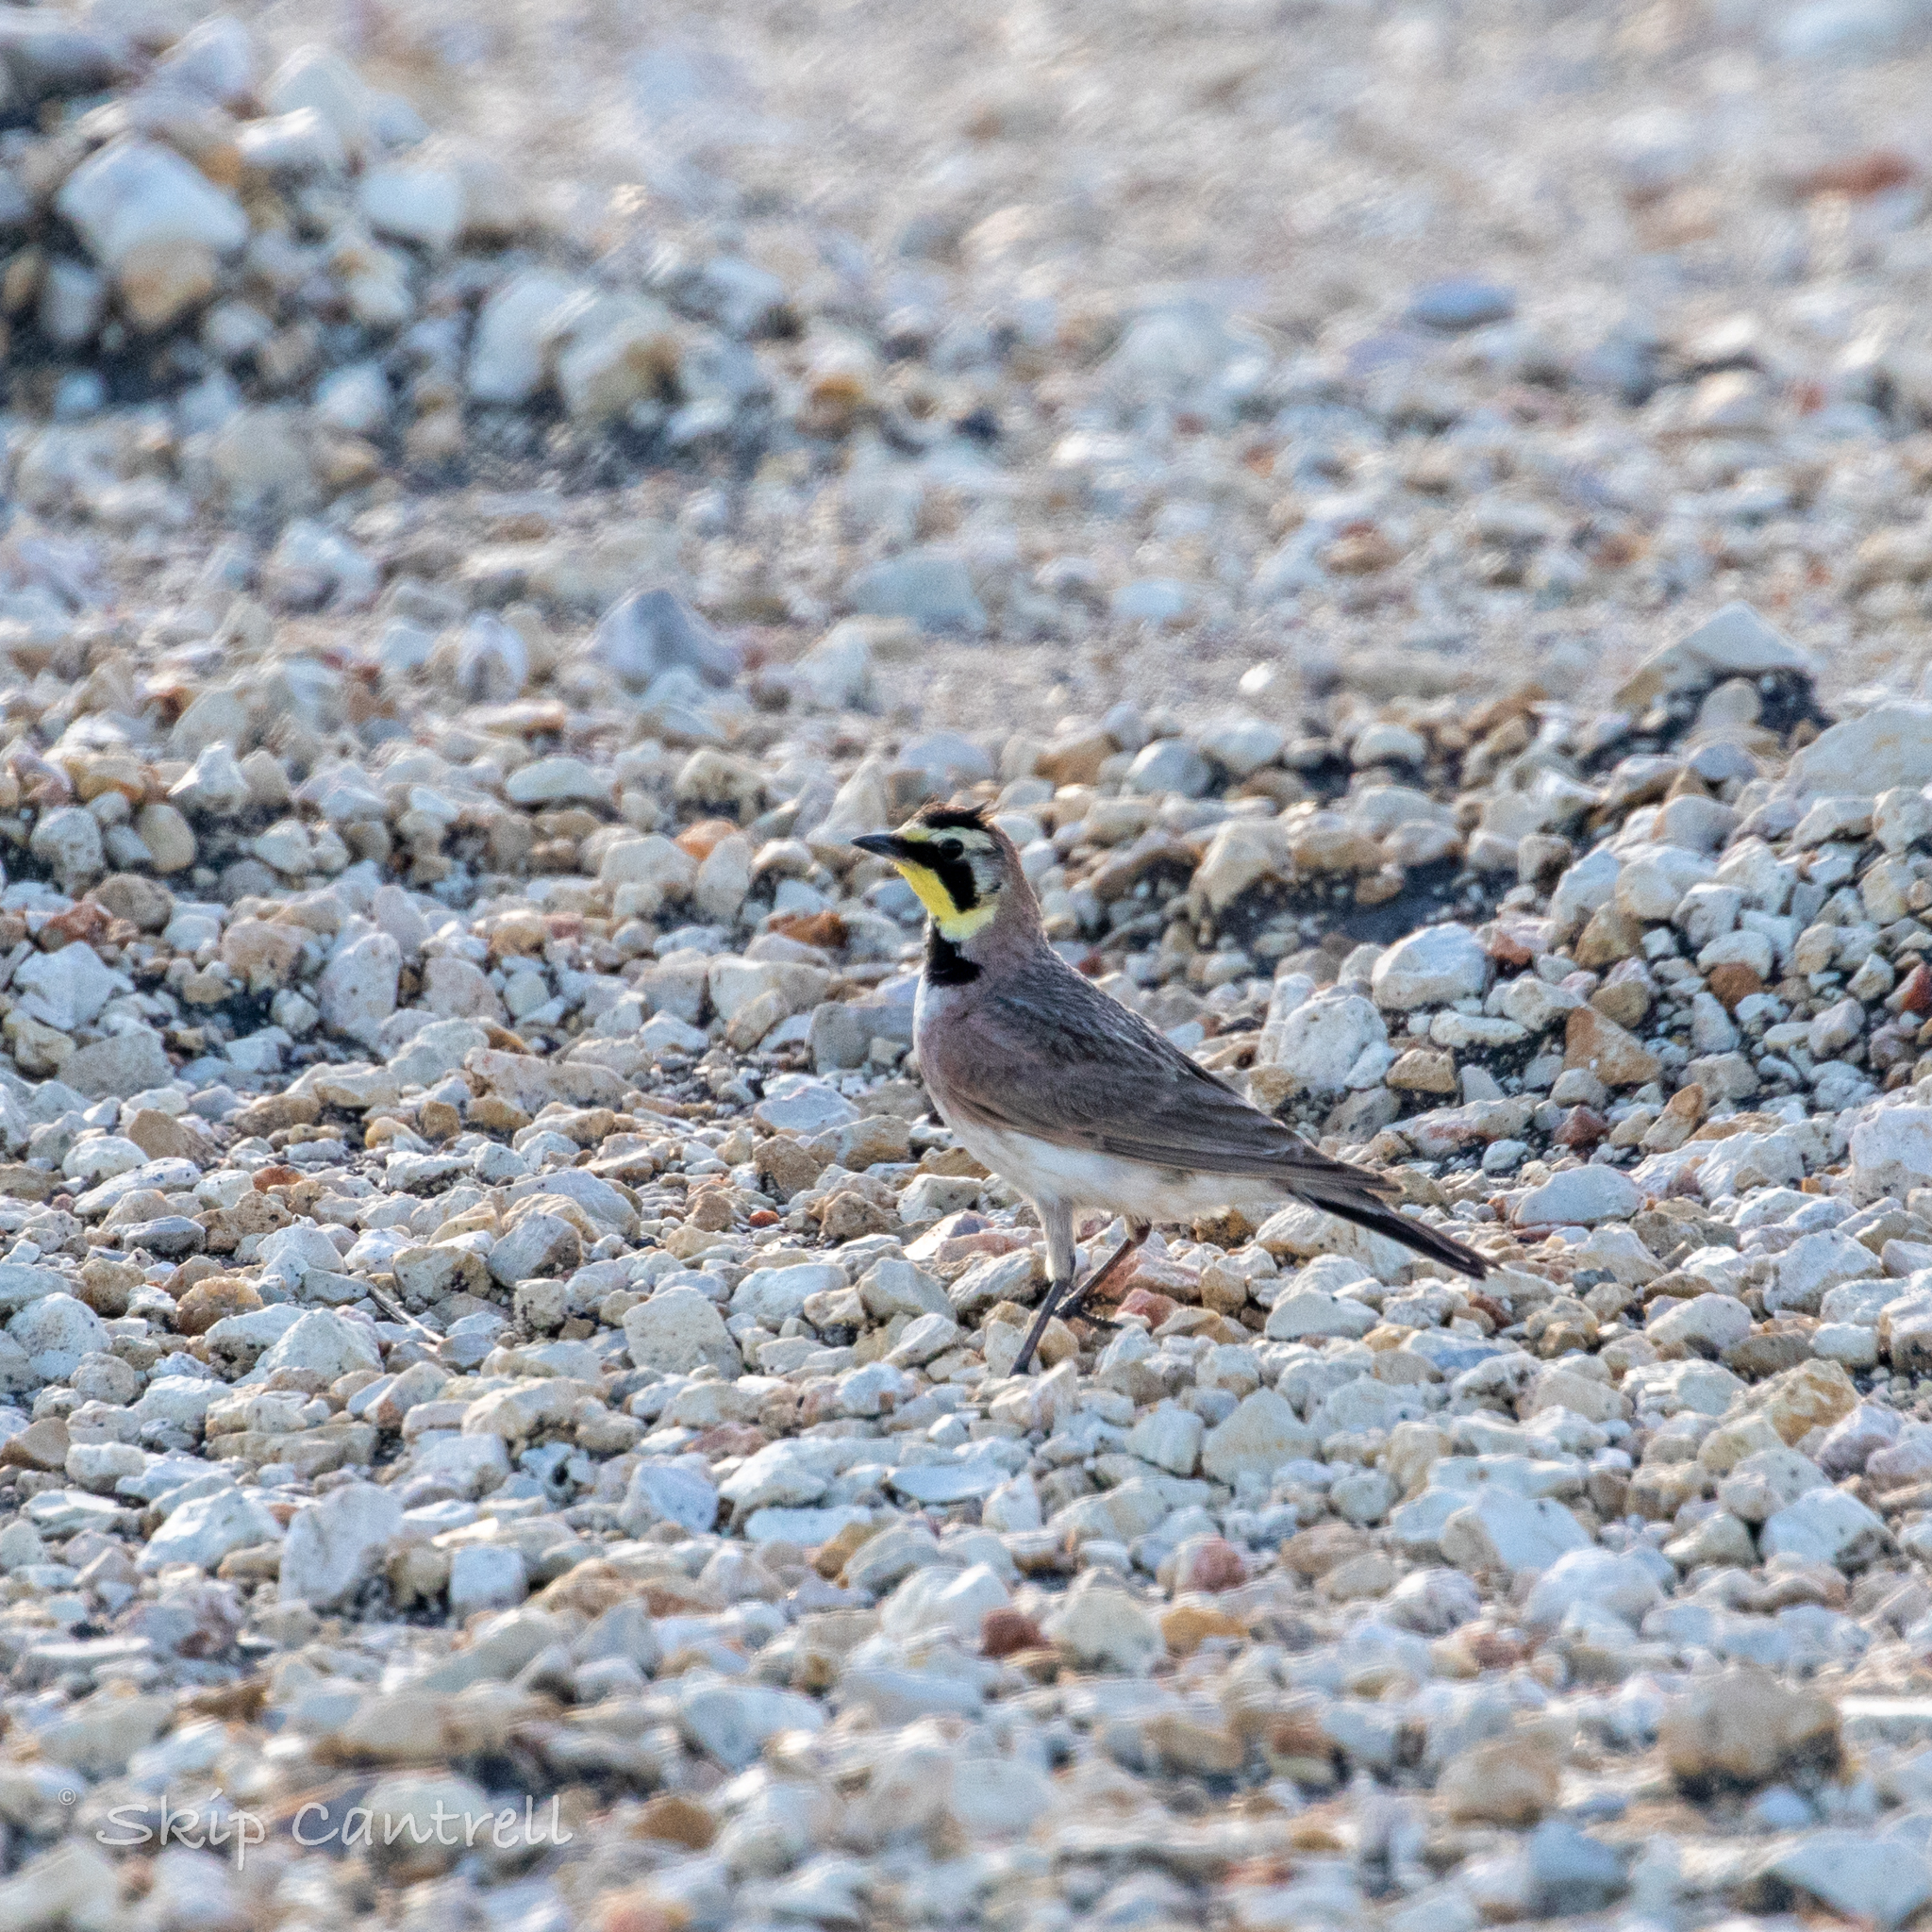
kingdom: Animalia
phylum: Chordata
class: Aves
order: Passeriformes
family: Alaudidae
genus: Eremophila
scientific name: Eremophila alpestris
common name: Horned lark
